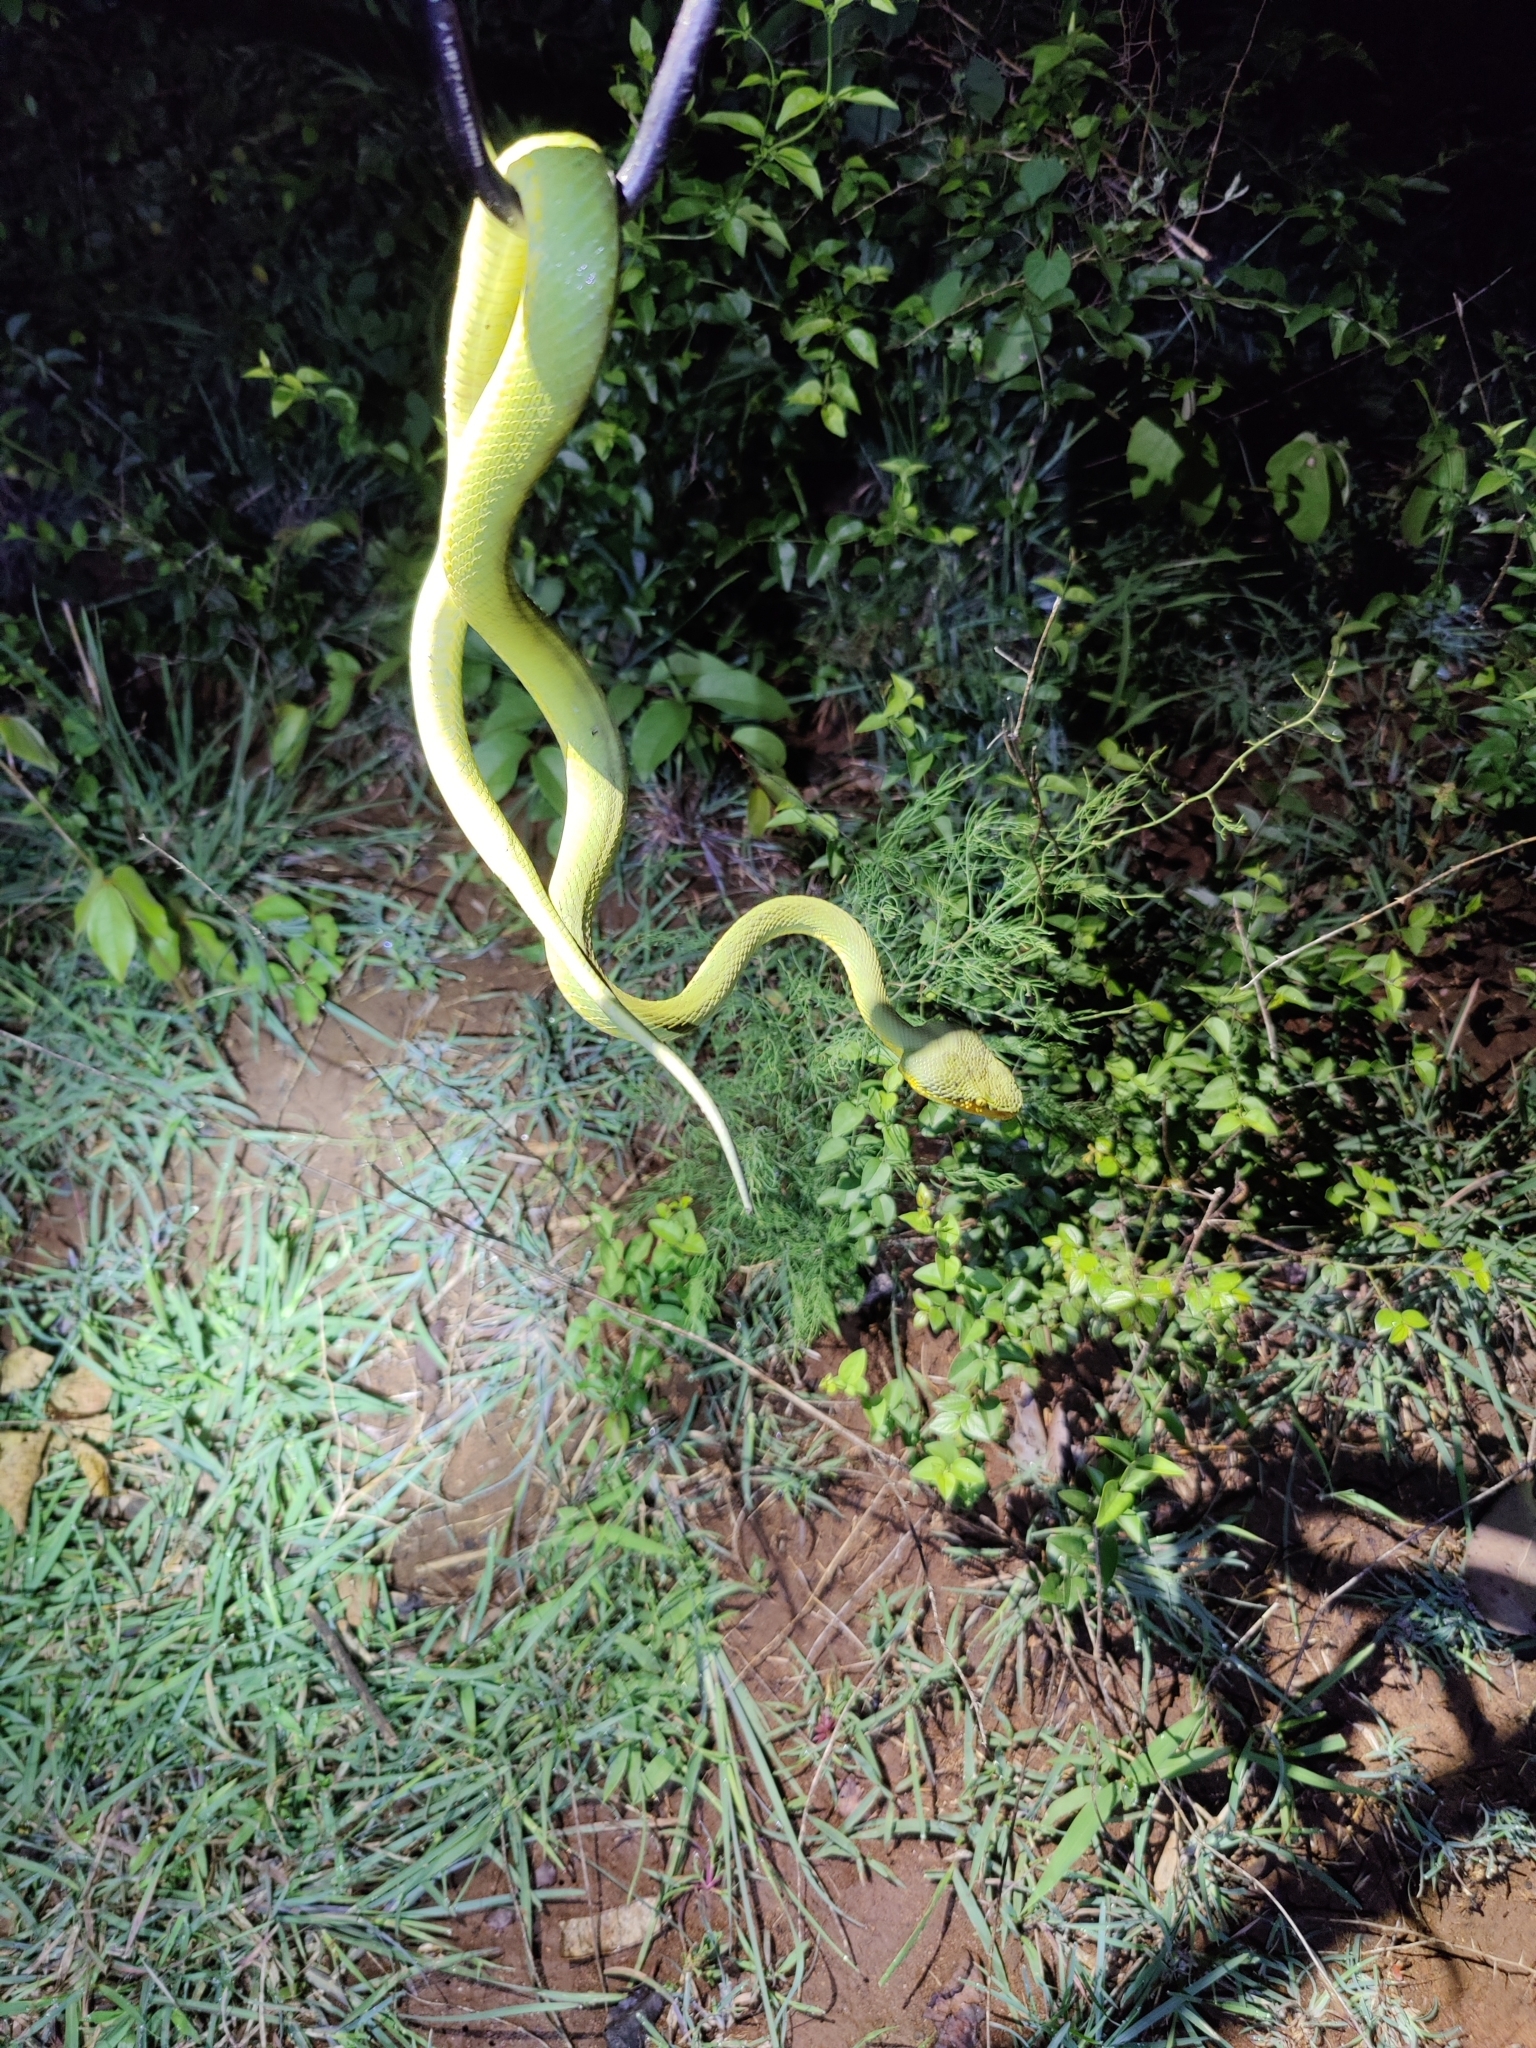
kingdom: Animalia
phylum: Chordata
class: Squamata
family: Viperidae
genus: Craspedocephalus
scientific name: Craspedocephalus gramineus
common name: Common bamboo viper
